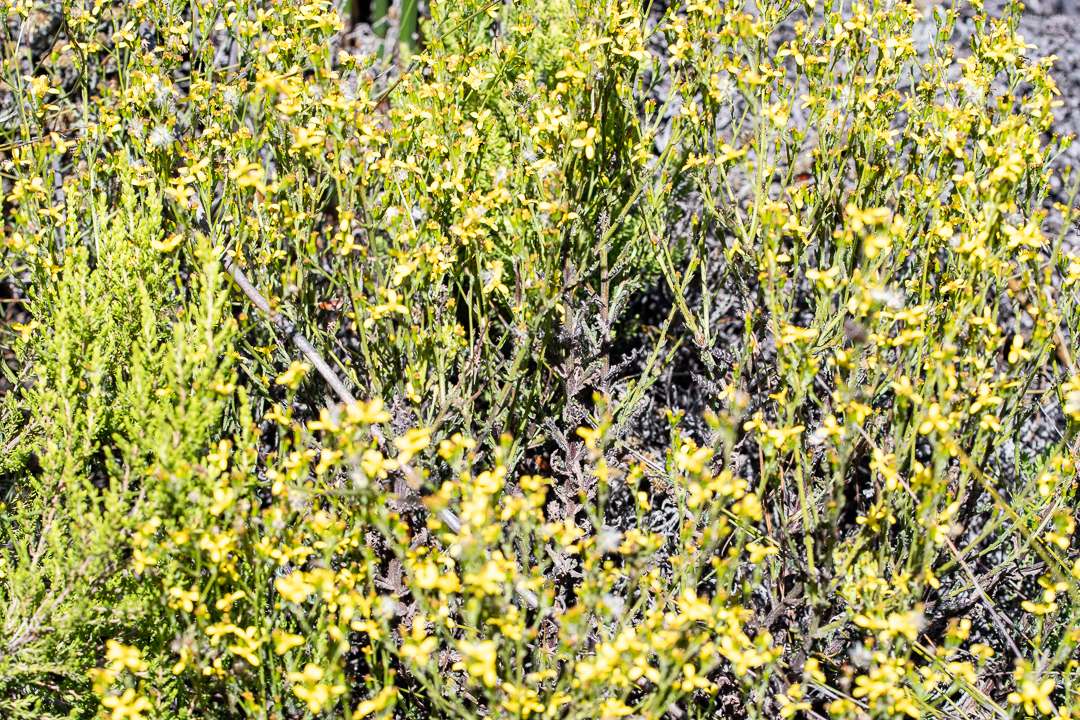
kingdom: Plantae
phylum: Tracheophyta
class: Magnoliopsida
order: Asterales
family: Asteraceae
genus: Senecio
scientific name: Senecio pubigerus
